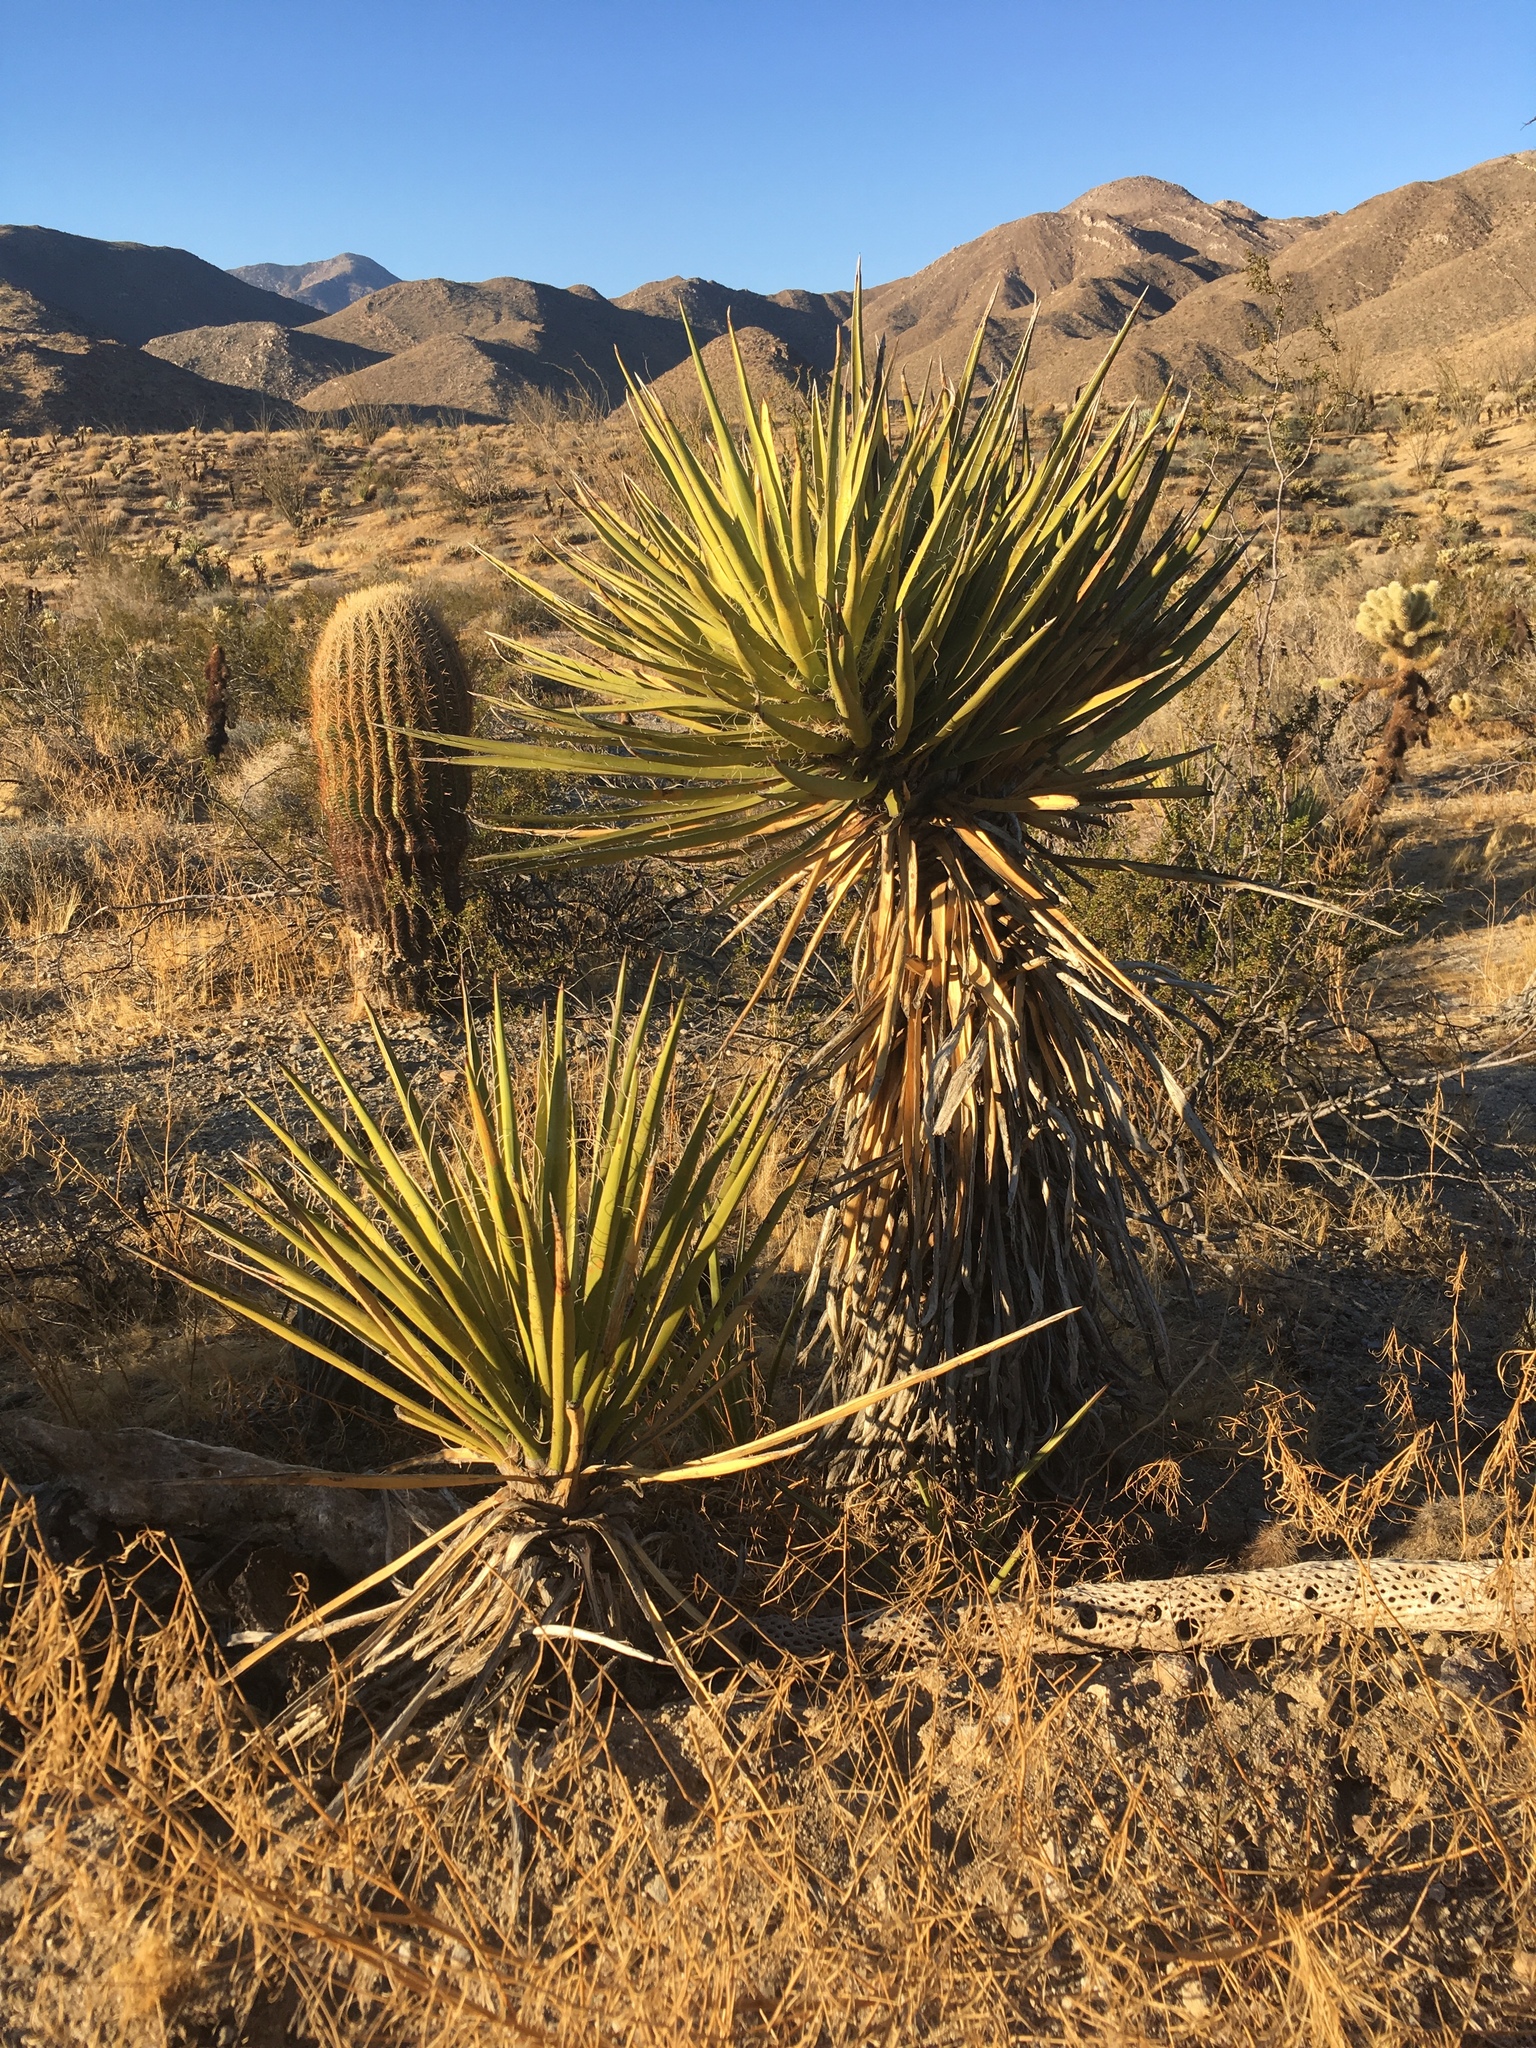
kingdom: Plantae
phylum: Tracheophyta
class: Liliopsida
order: Asparagales
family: Asparagaceae
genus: Yucca
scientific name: Yucca schidigera
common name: Mojave yucca
